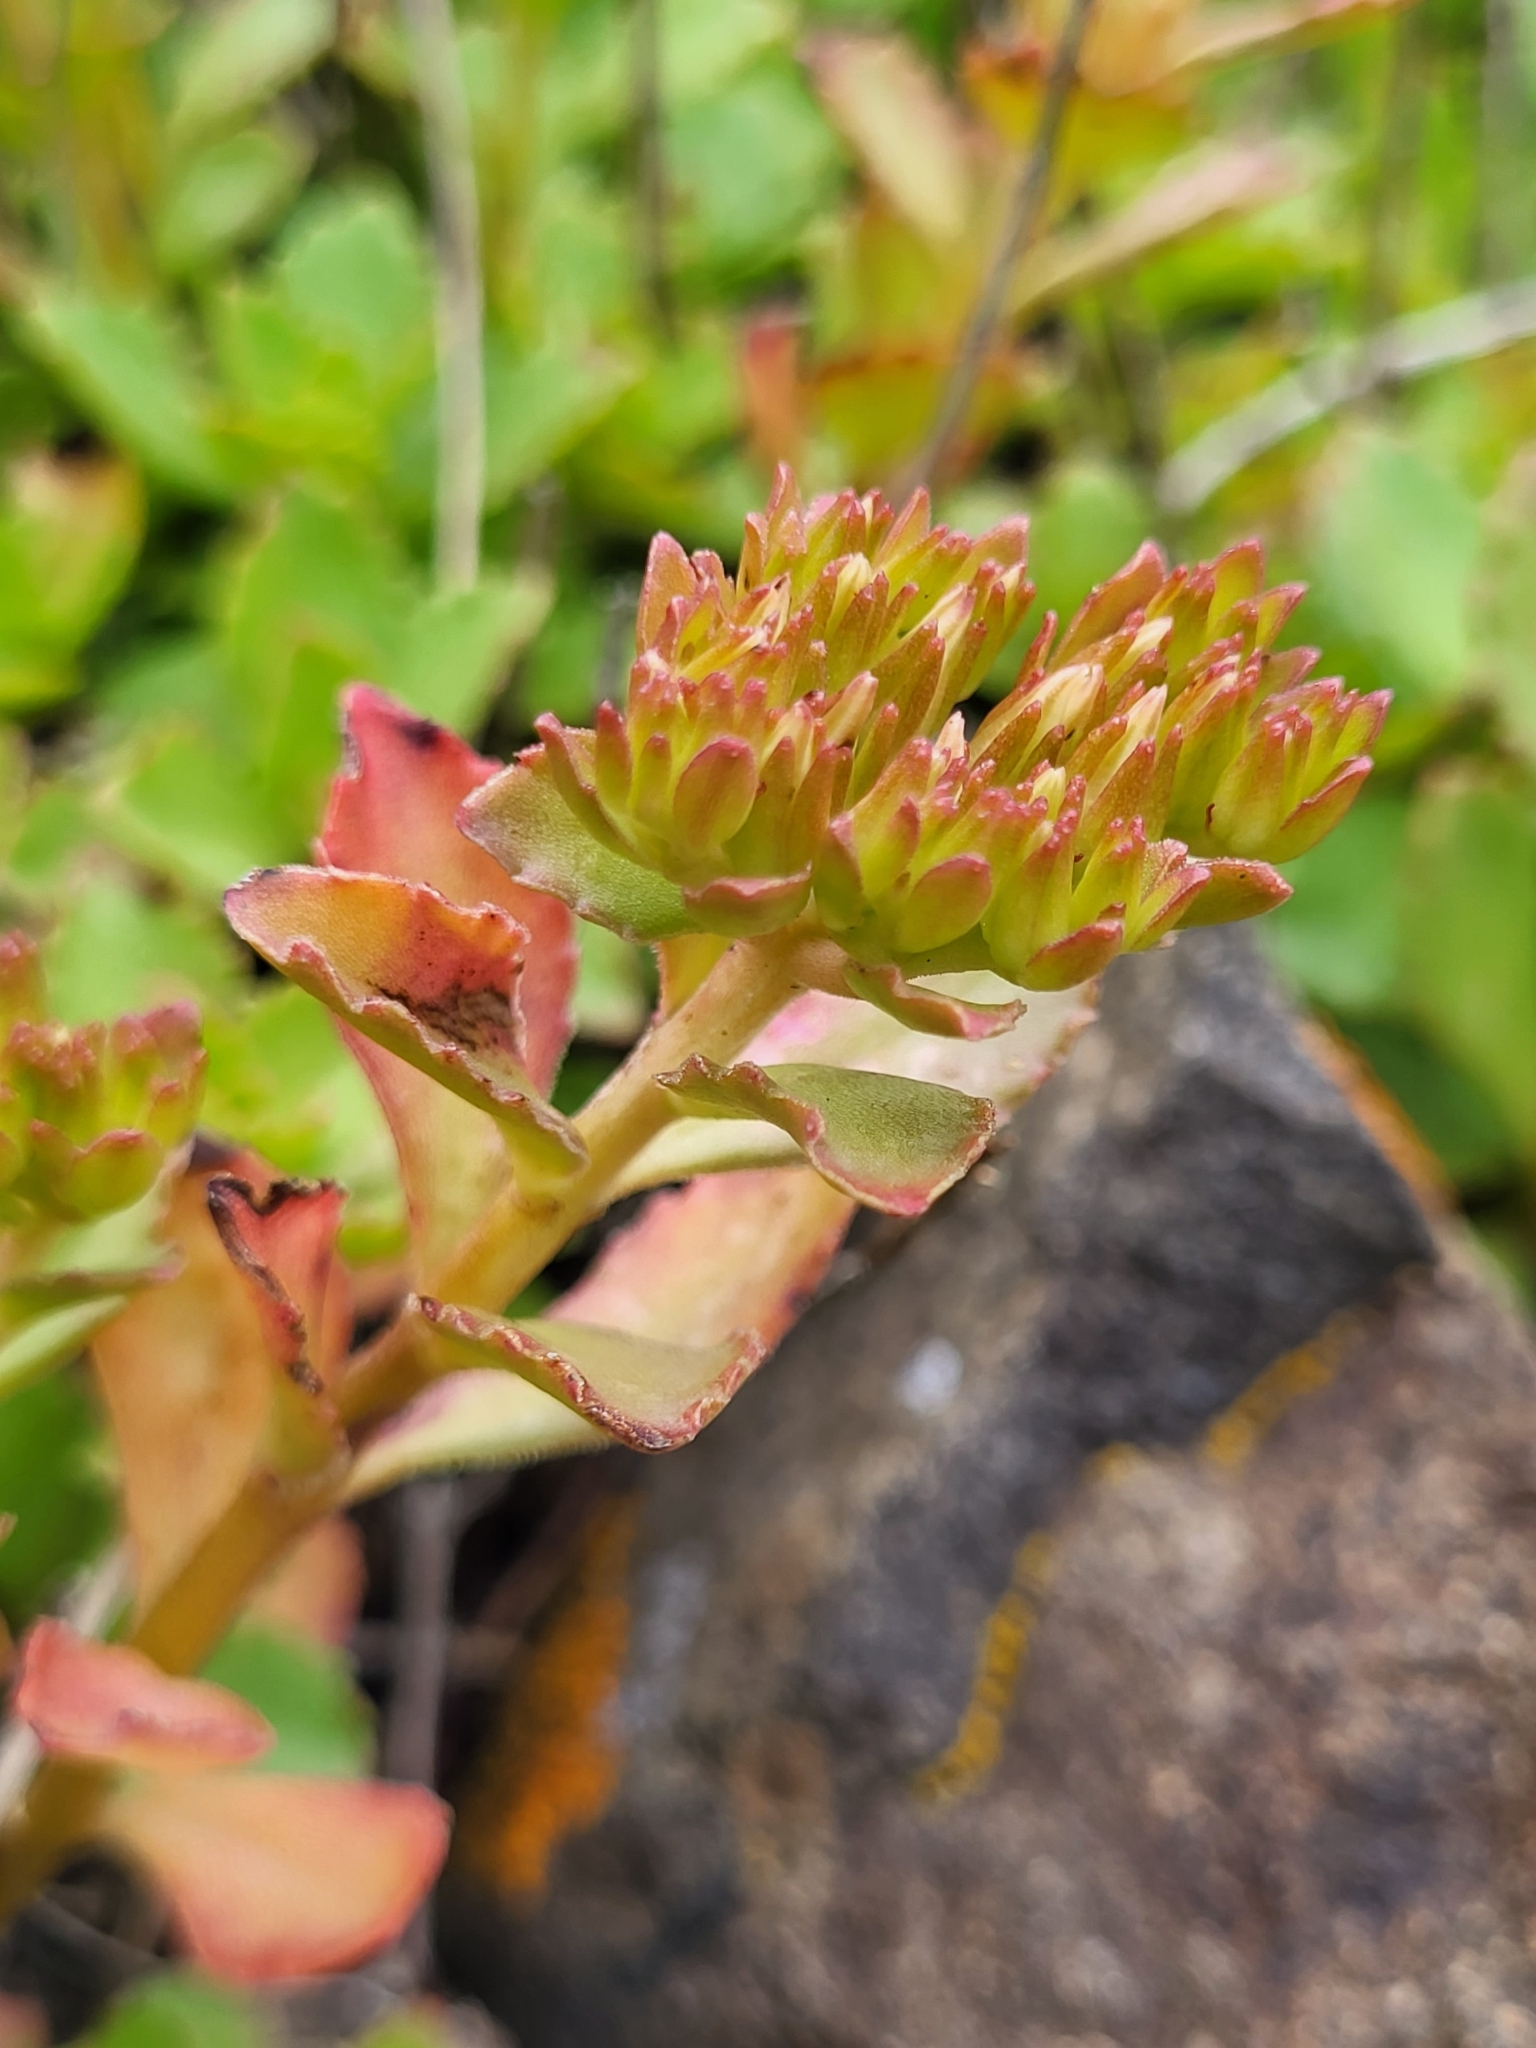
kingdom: Plantae
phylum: Tracheophyta
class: Magnoliopsida
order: Saxifragales
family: Crassulaceae
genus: Phedimus
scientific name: Phedimus spurius
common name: Caucasian stonecrop
